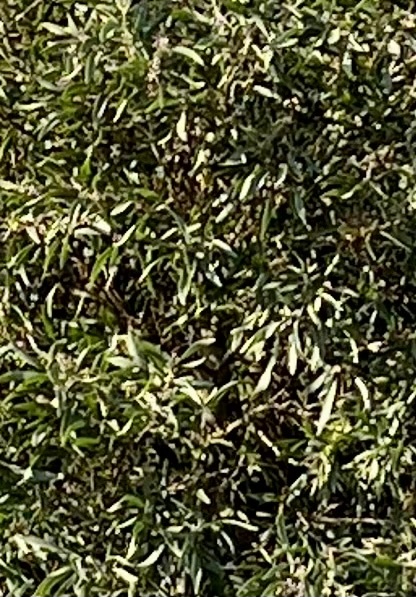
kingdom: Plantae
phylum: Tracheophyta
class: Magnoliopsida
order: Fabales
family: Fabaceae
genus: Acacia
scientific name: Acacia melanoxylon
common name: Blackwood
